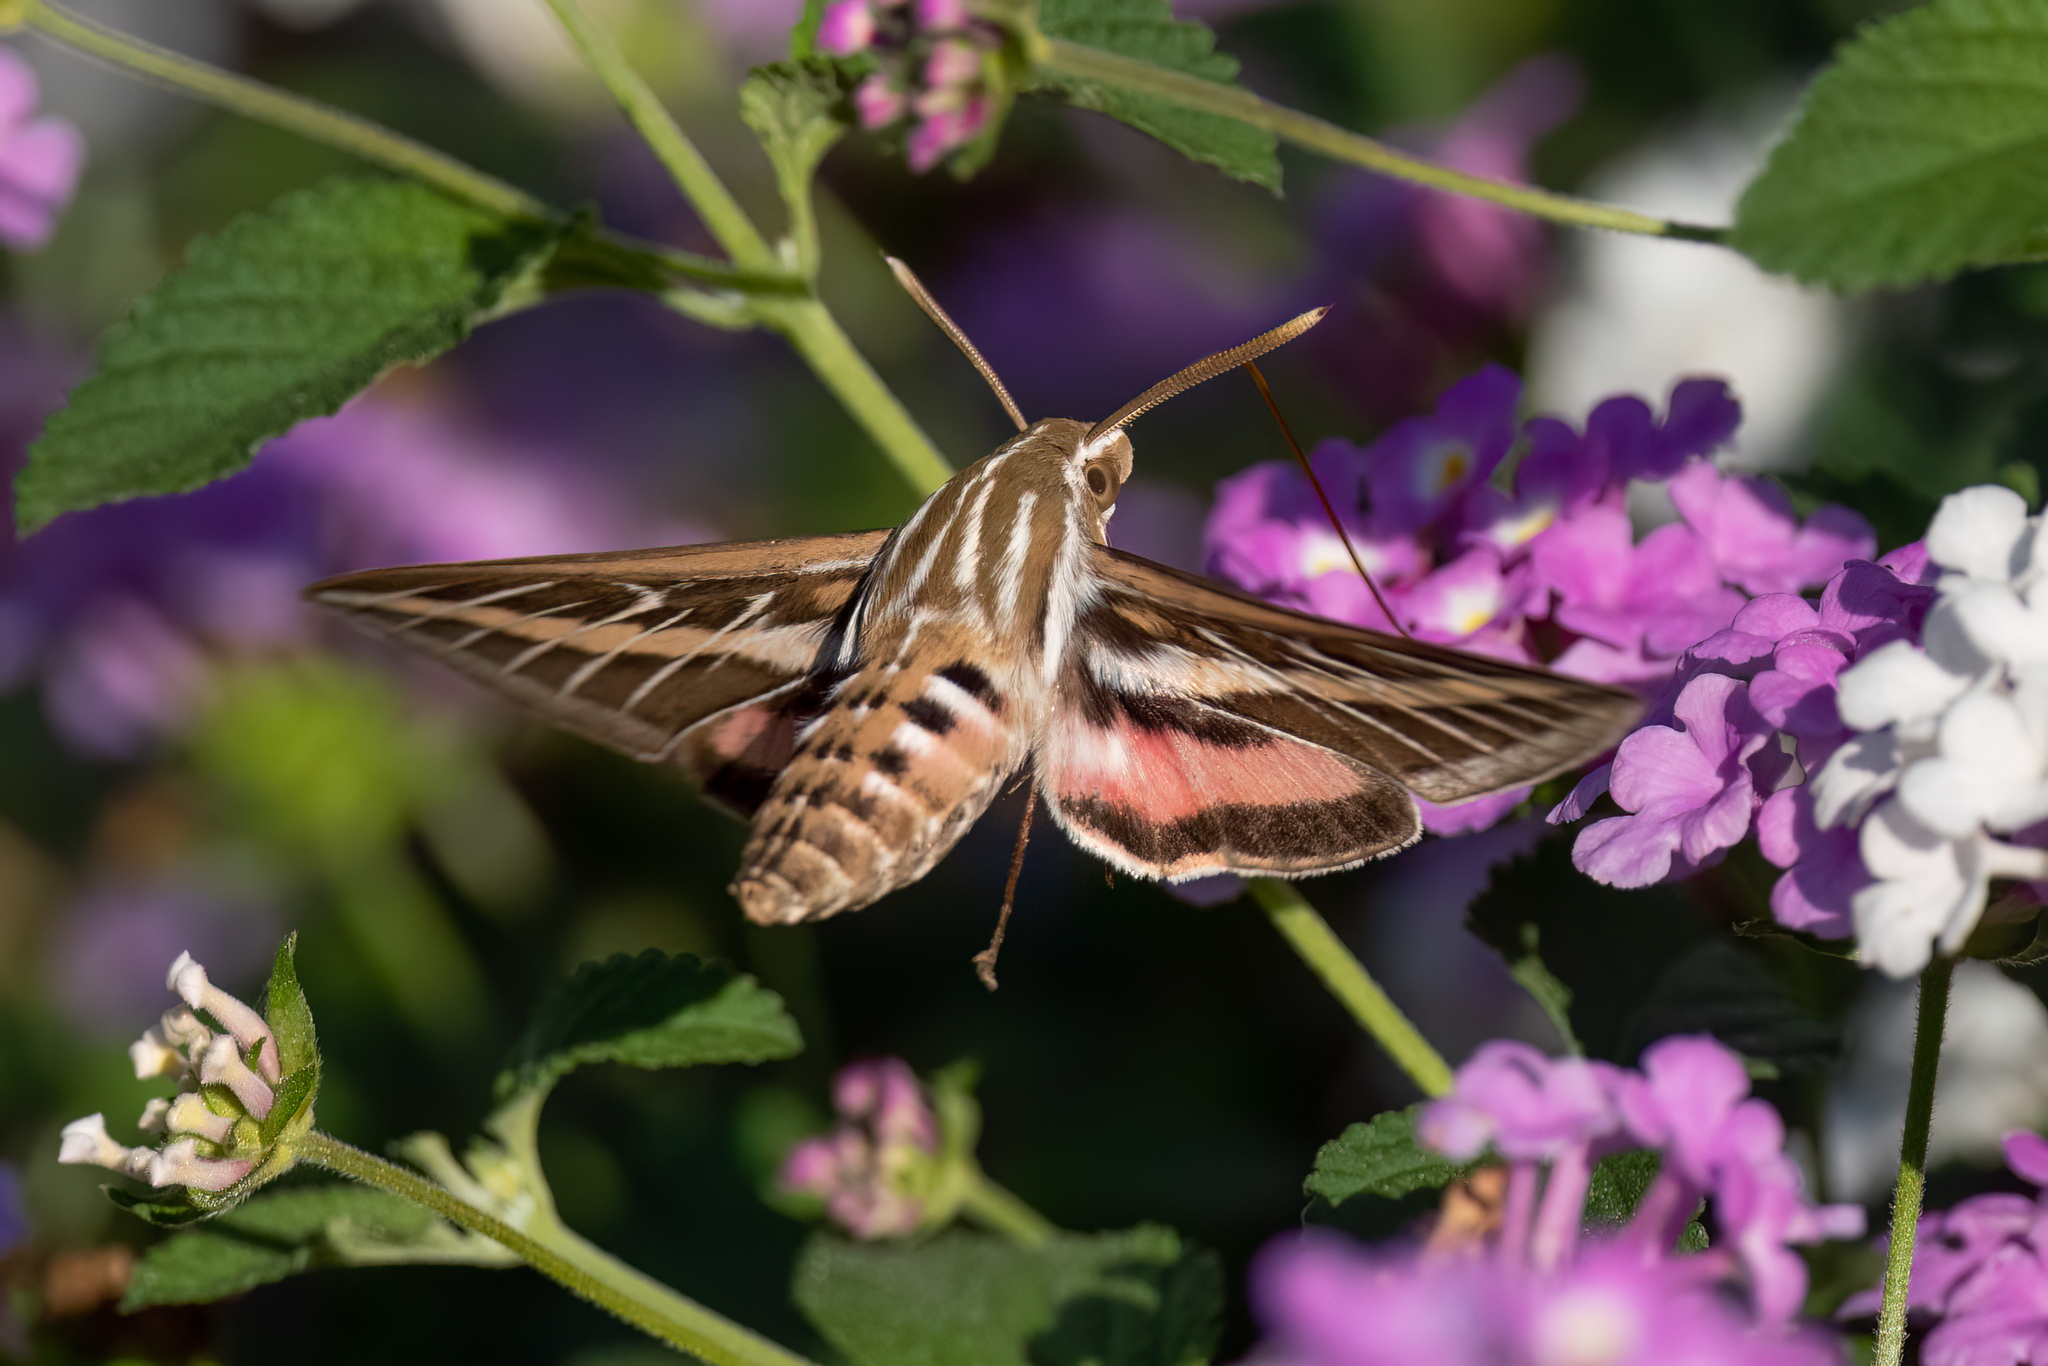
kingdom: Animalia
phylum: Arthropoda
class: Insecta
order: Lepidoptera
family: Sphingidae
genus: Hyles
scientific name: Hyles lineata
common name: White-lined sphinx
